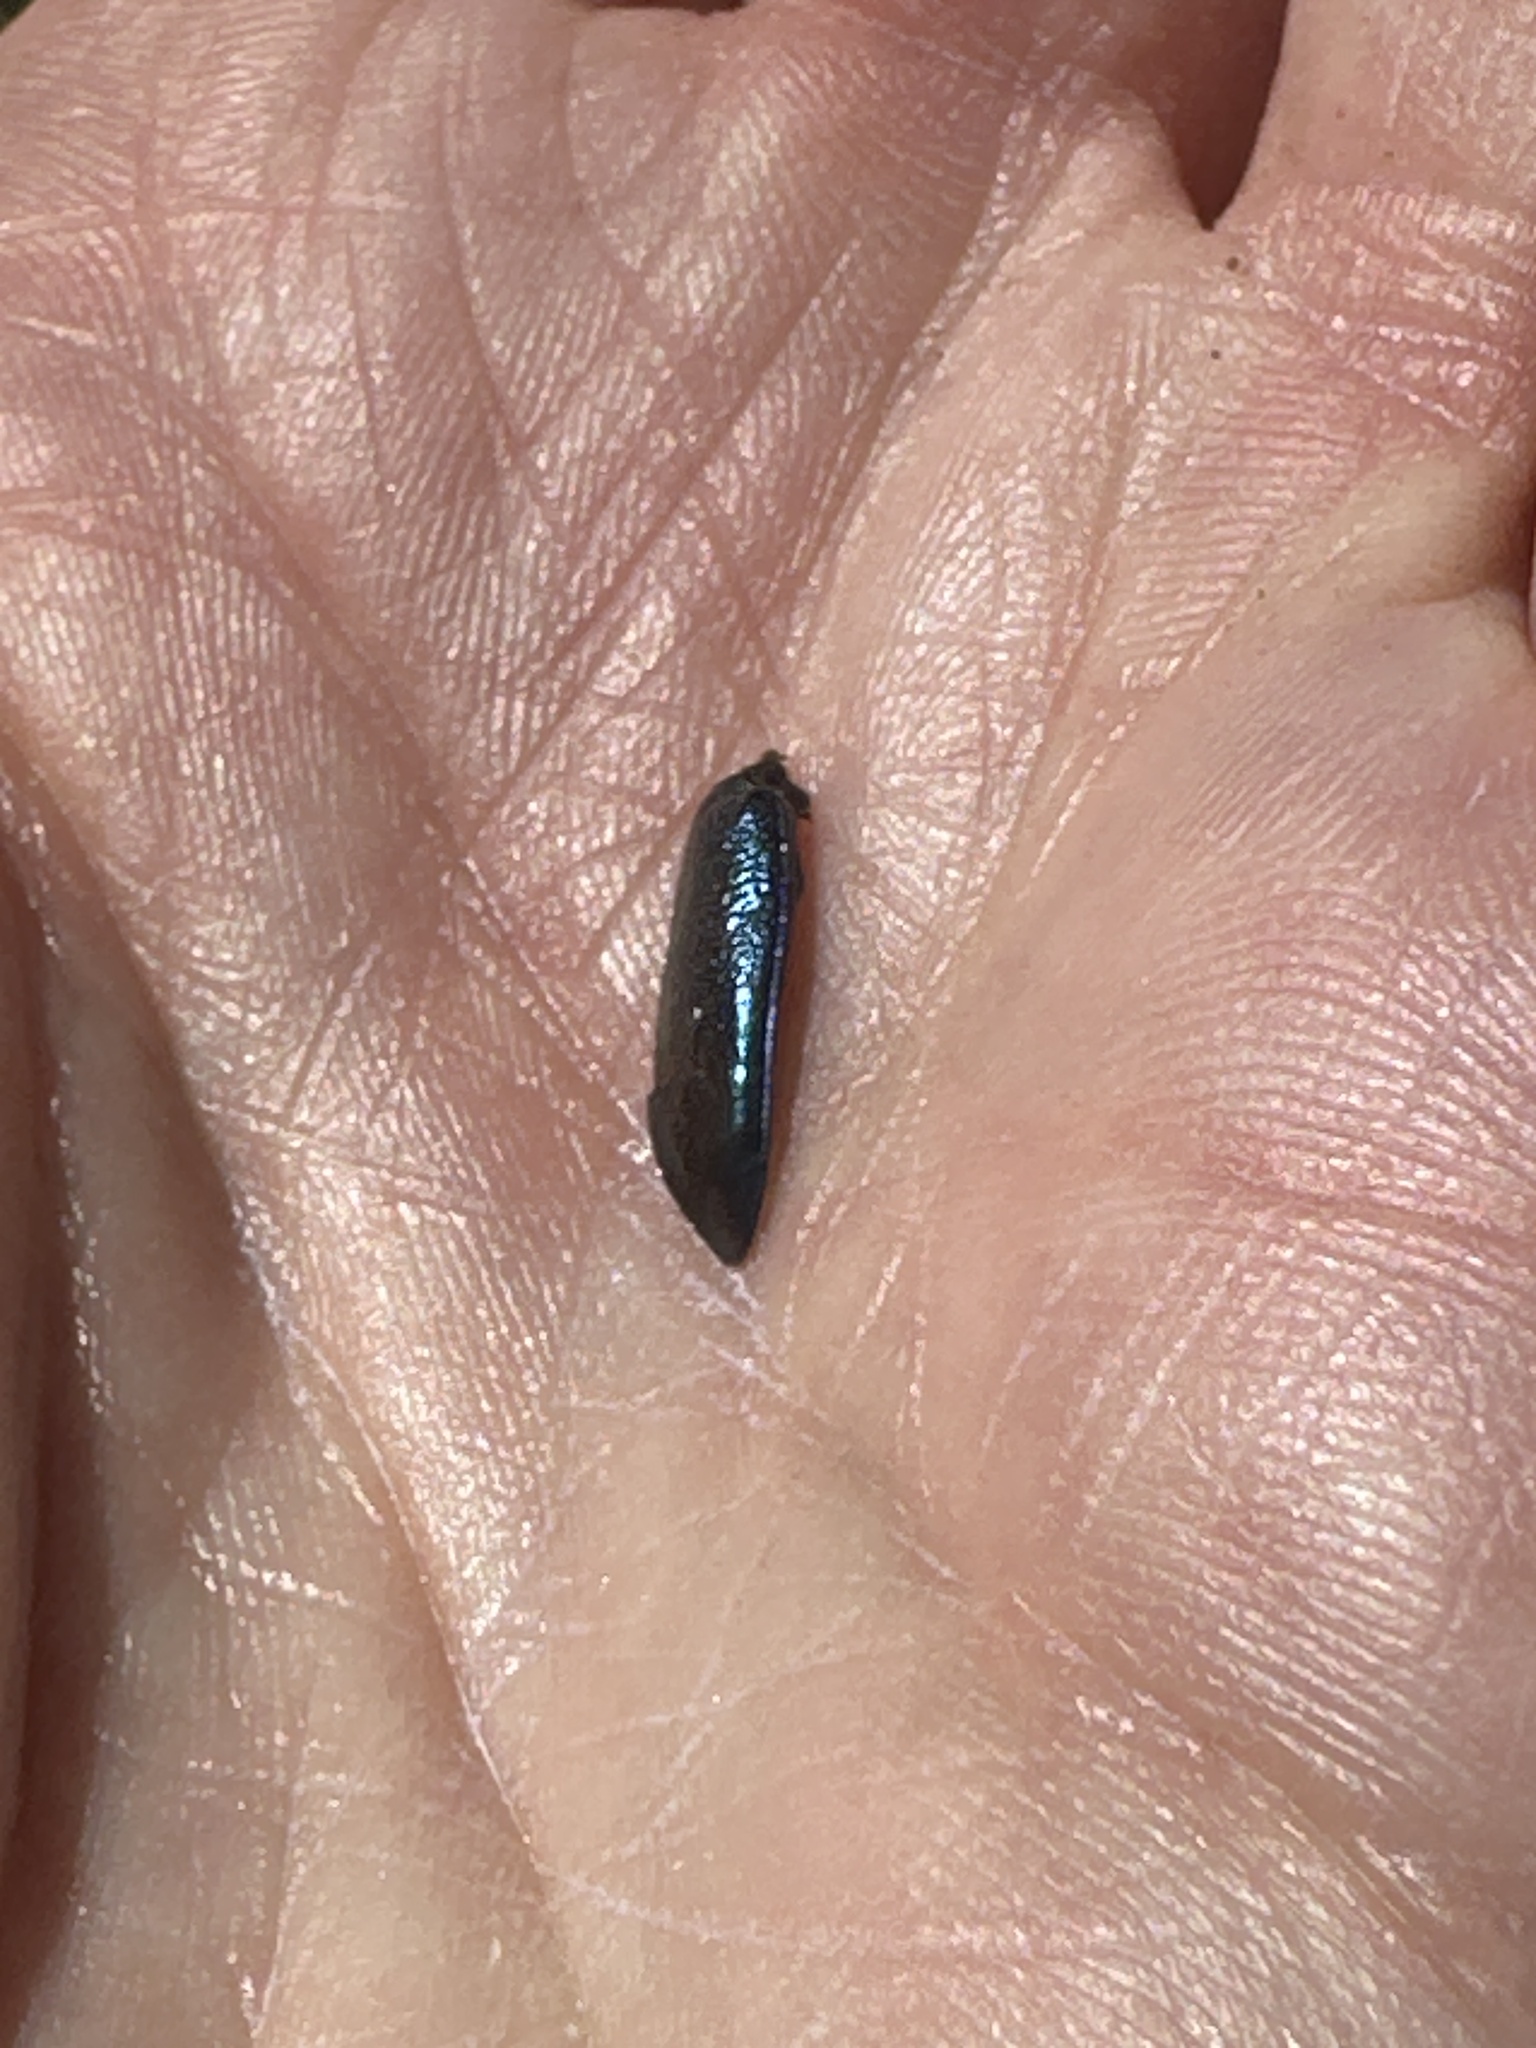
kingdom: Animalia
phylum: Arthropoda
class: Insecta
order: Coleoptera
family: Carabidae
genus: Tetracha
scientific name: Tetracha virginica
